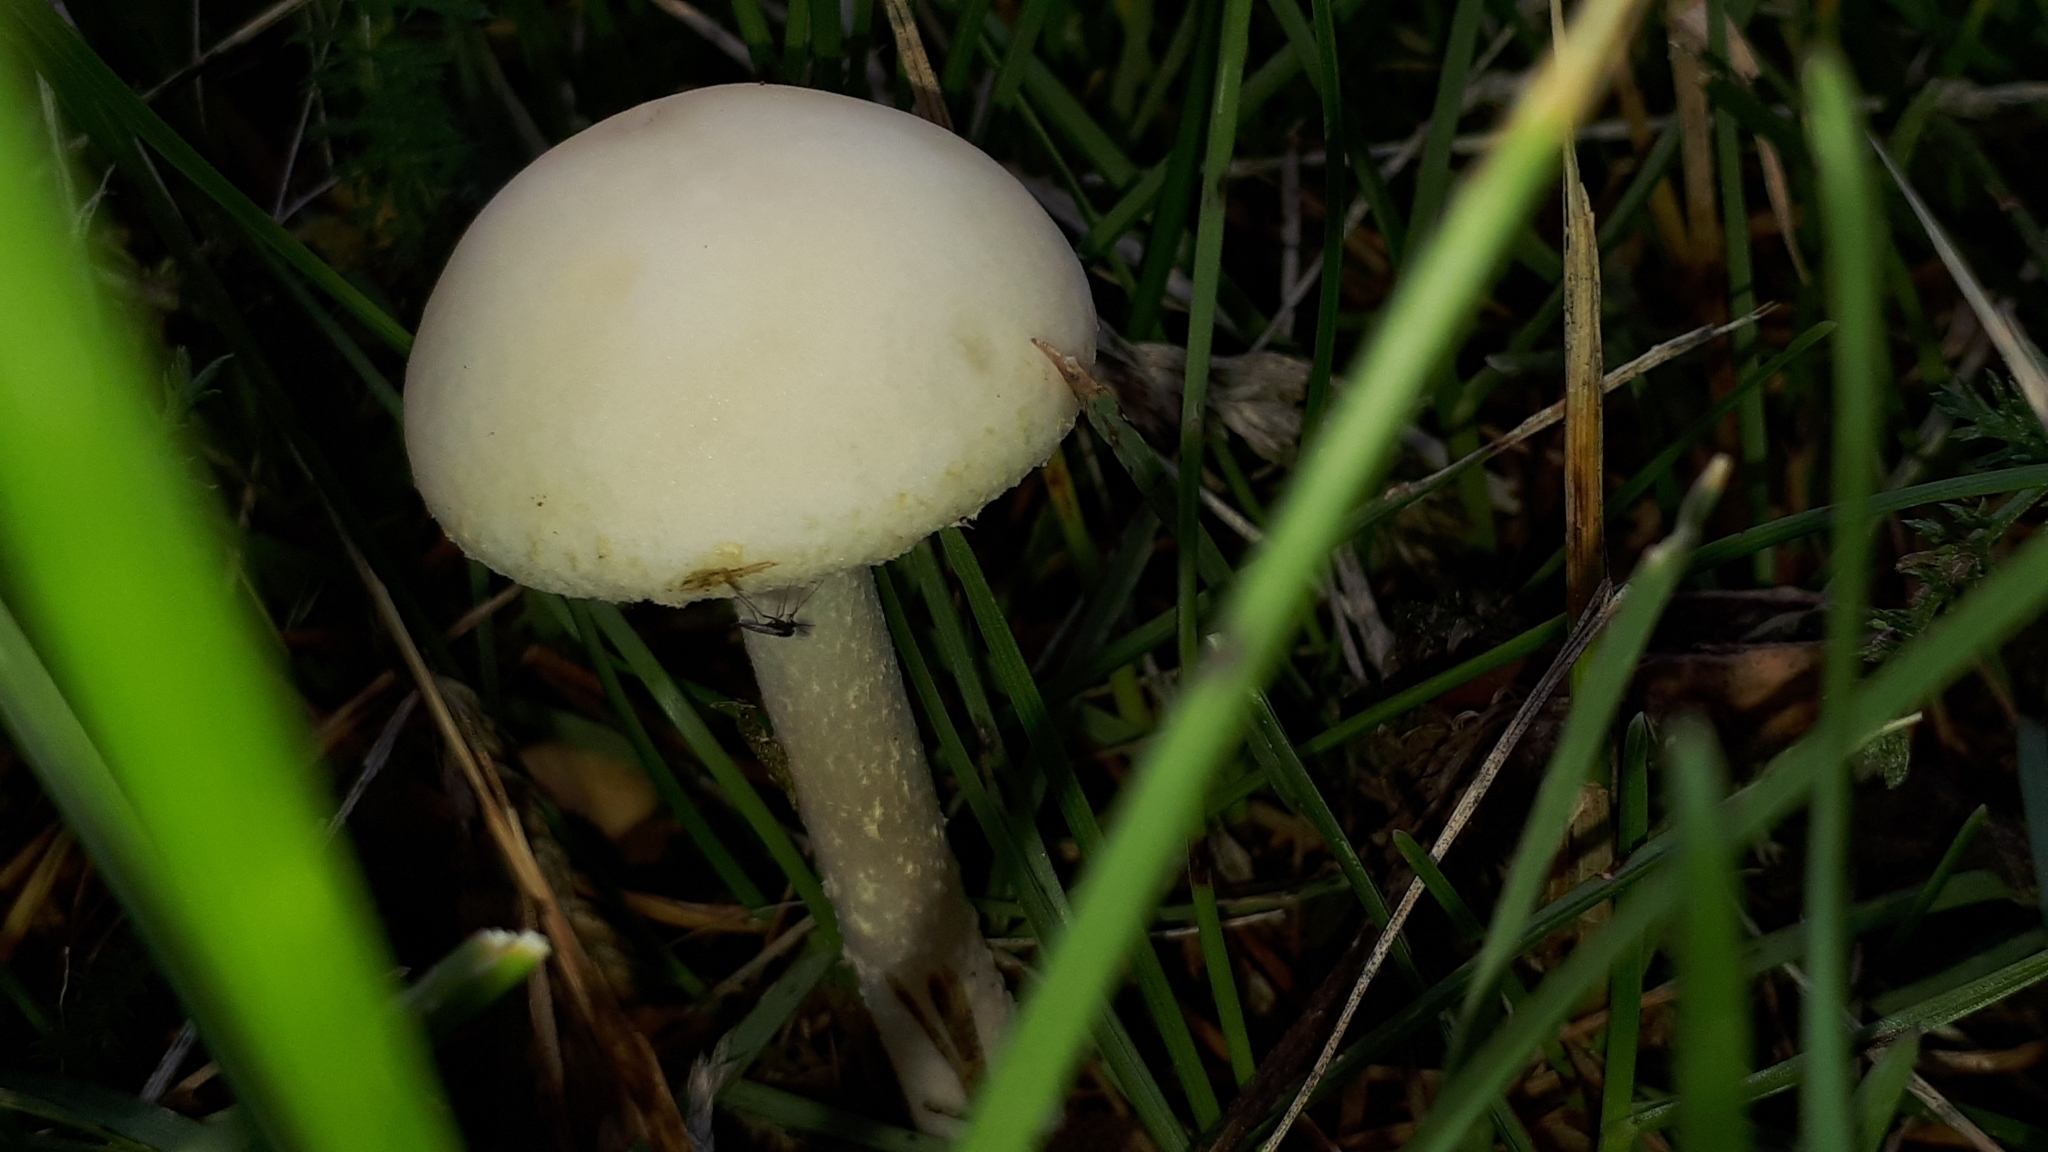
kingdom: Fungi
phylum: Basidiomycota
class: Agaricomycetes
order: Agaricales
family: Strophariaceae
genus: Agrocybe
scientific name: Agrocybe molesta
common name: Bearded fieldcap
